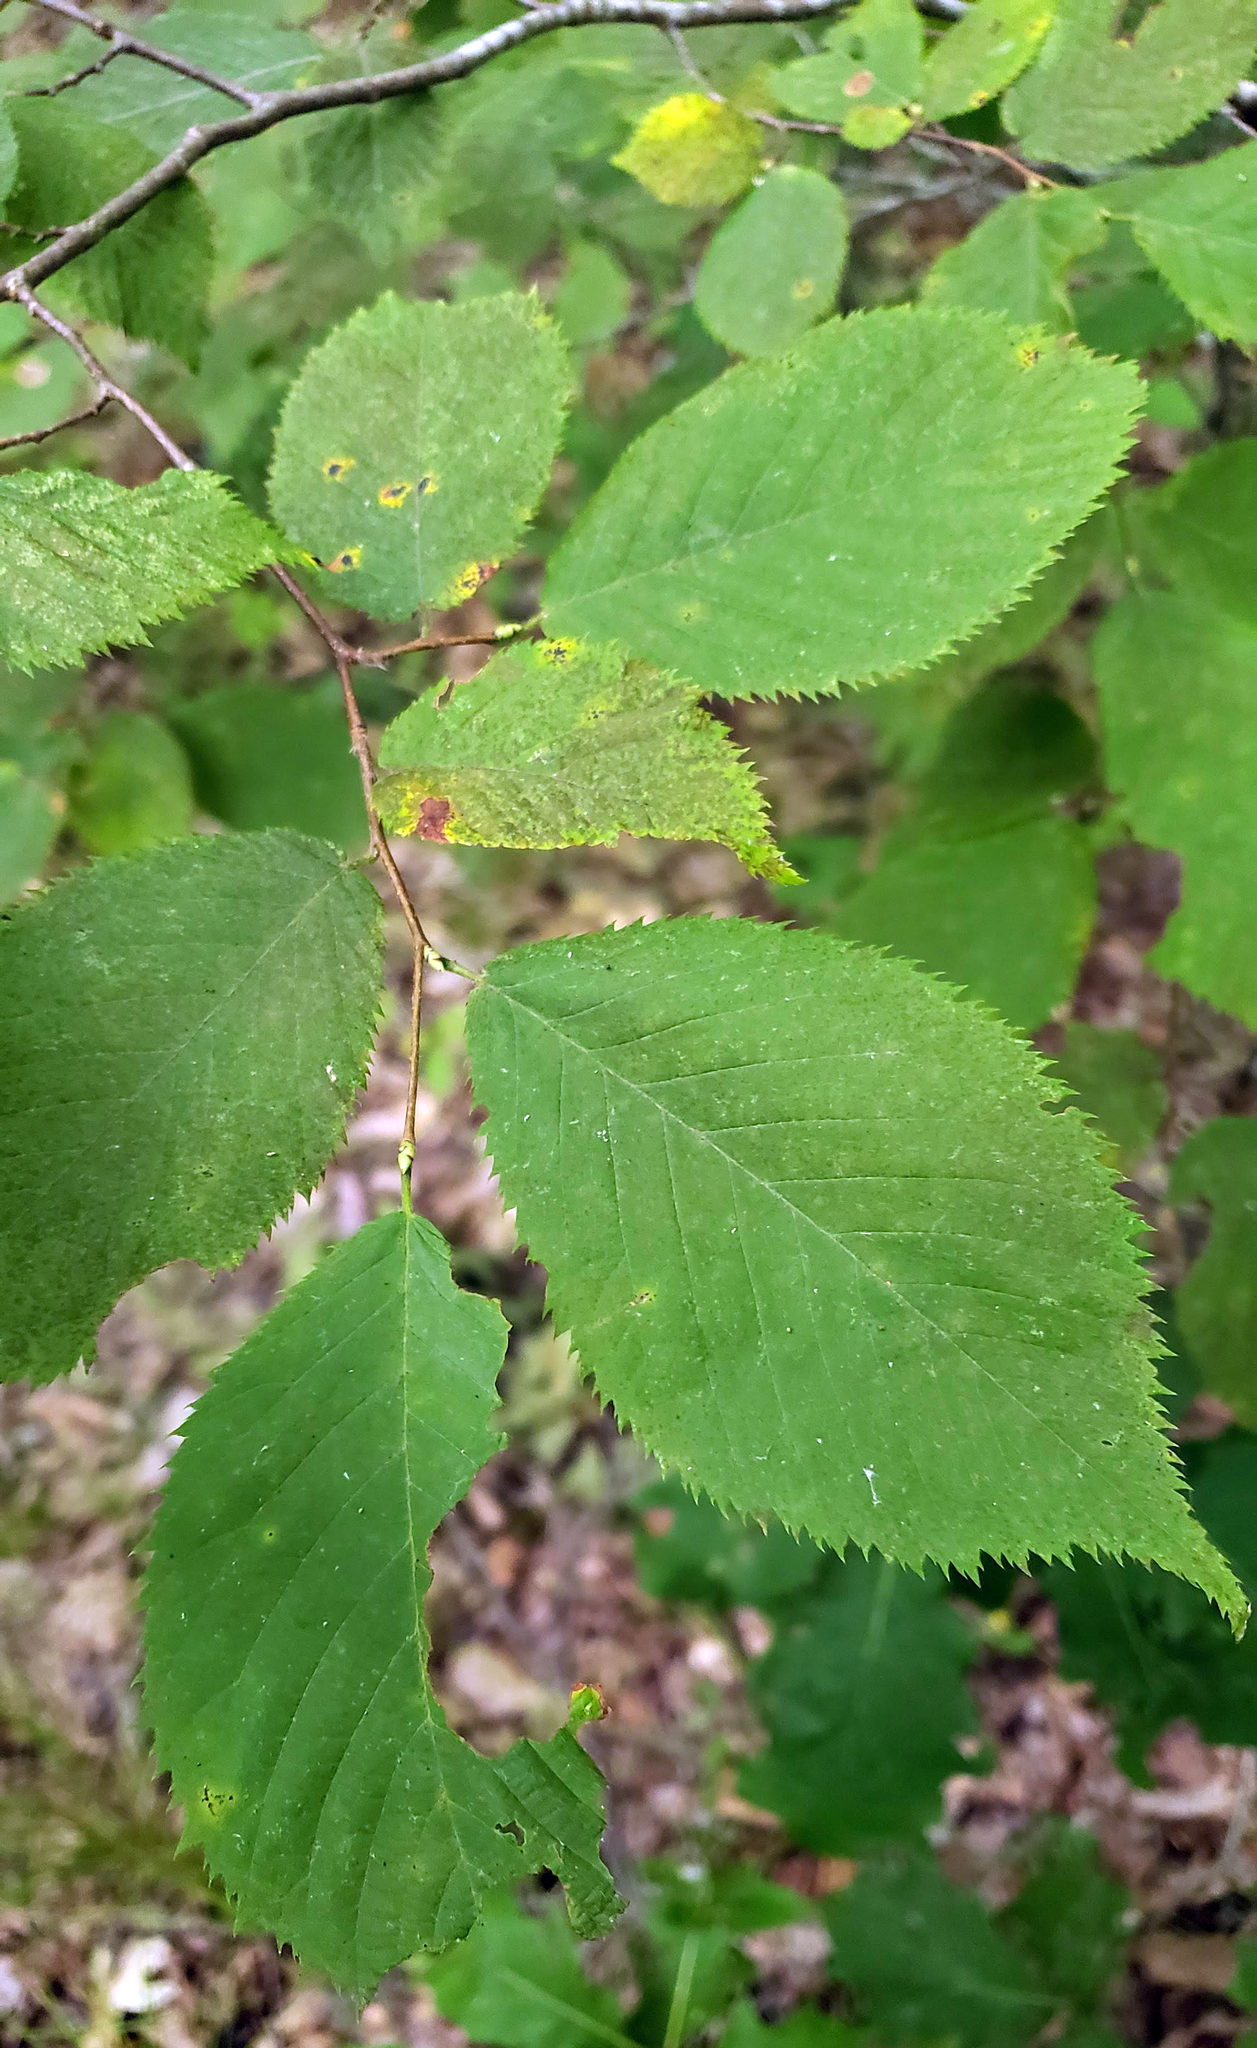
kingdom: Plantae
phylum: Tracheophyta
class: Magnoliopsida
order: Fagales
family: Betulaceae
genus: Ostrya
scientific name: Ostrya virginiana
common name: Ironwood
